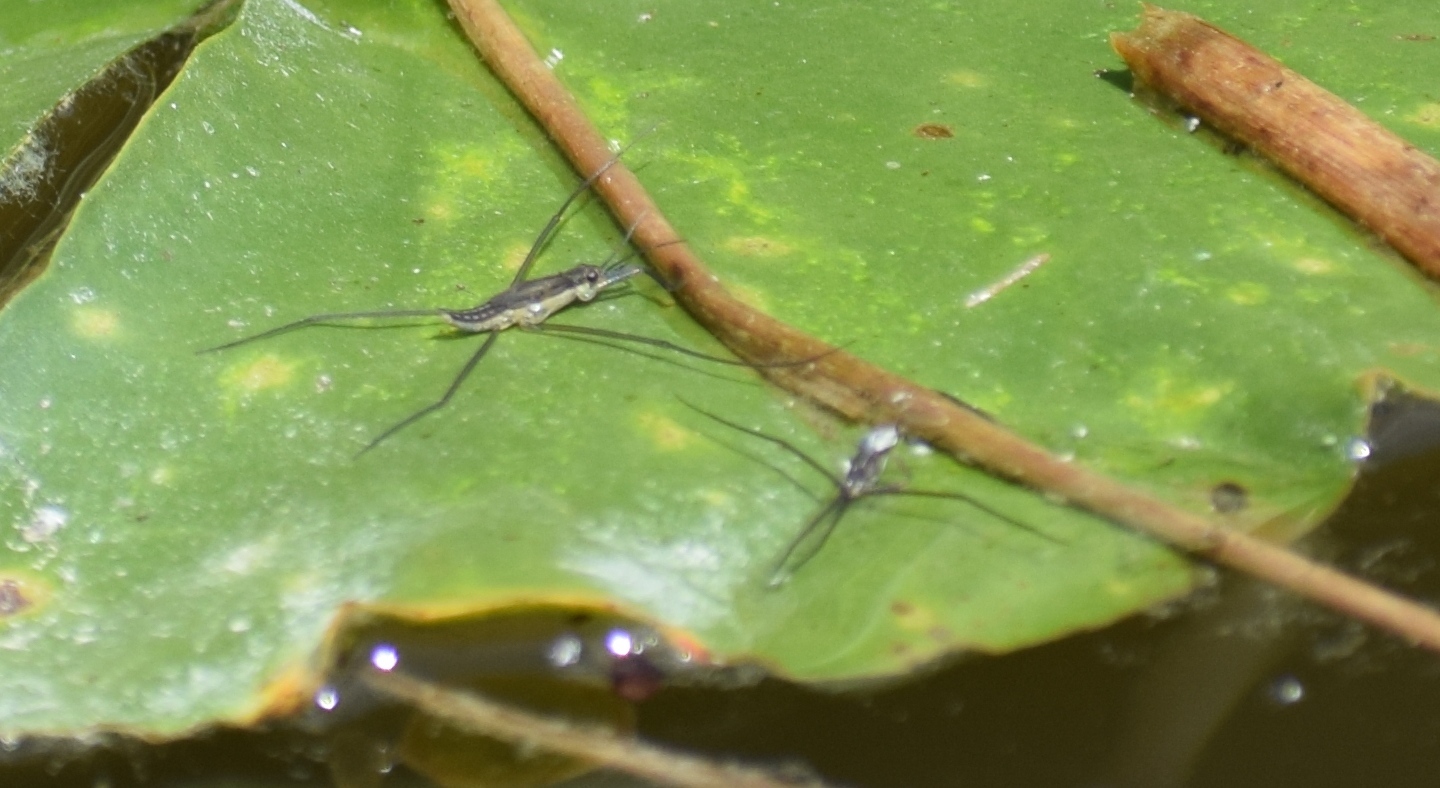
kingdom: Animalia
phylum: Arthropoda
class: Insecta
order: Hemiptera
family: Gerridae
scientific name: Gerridae
